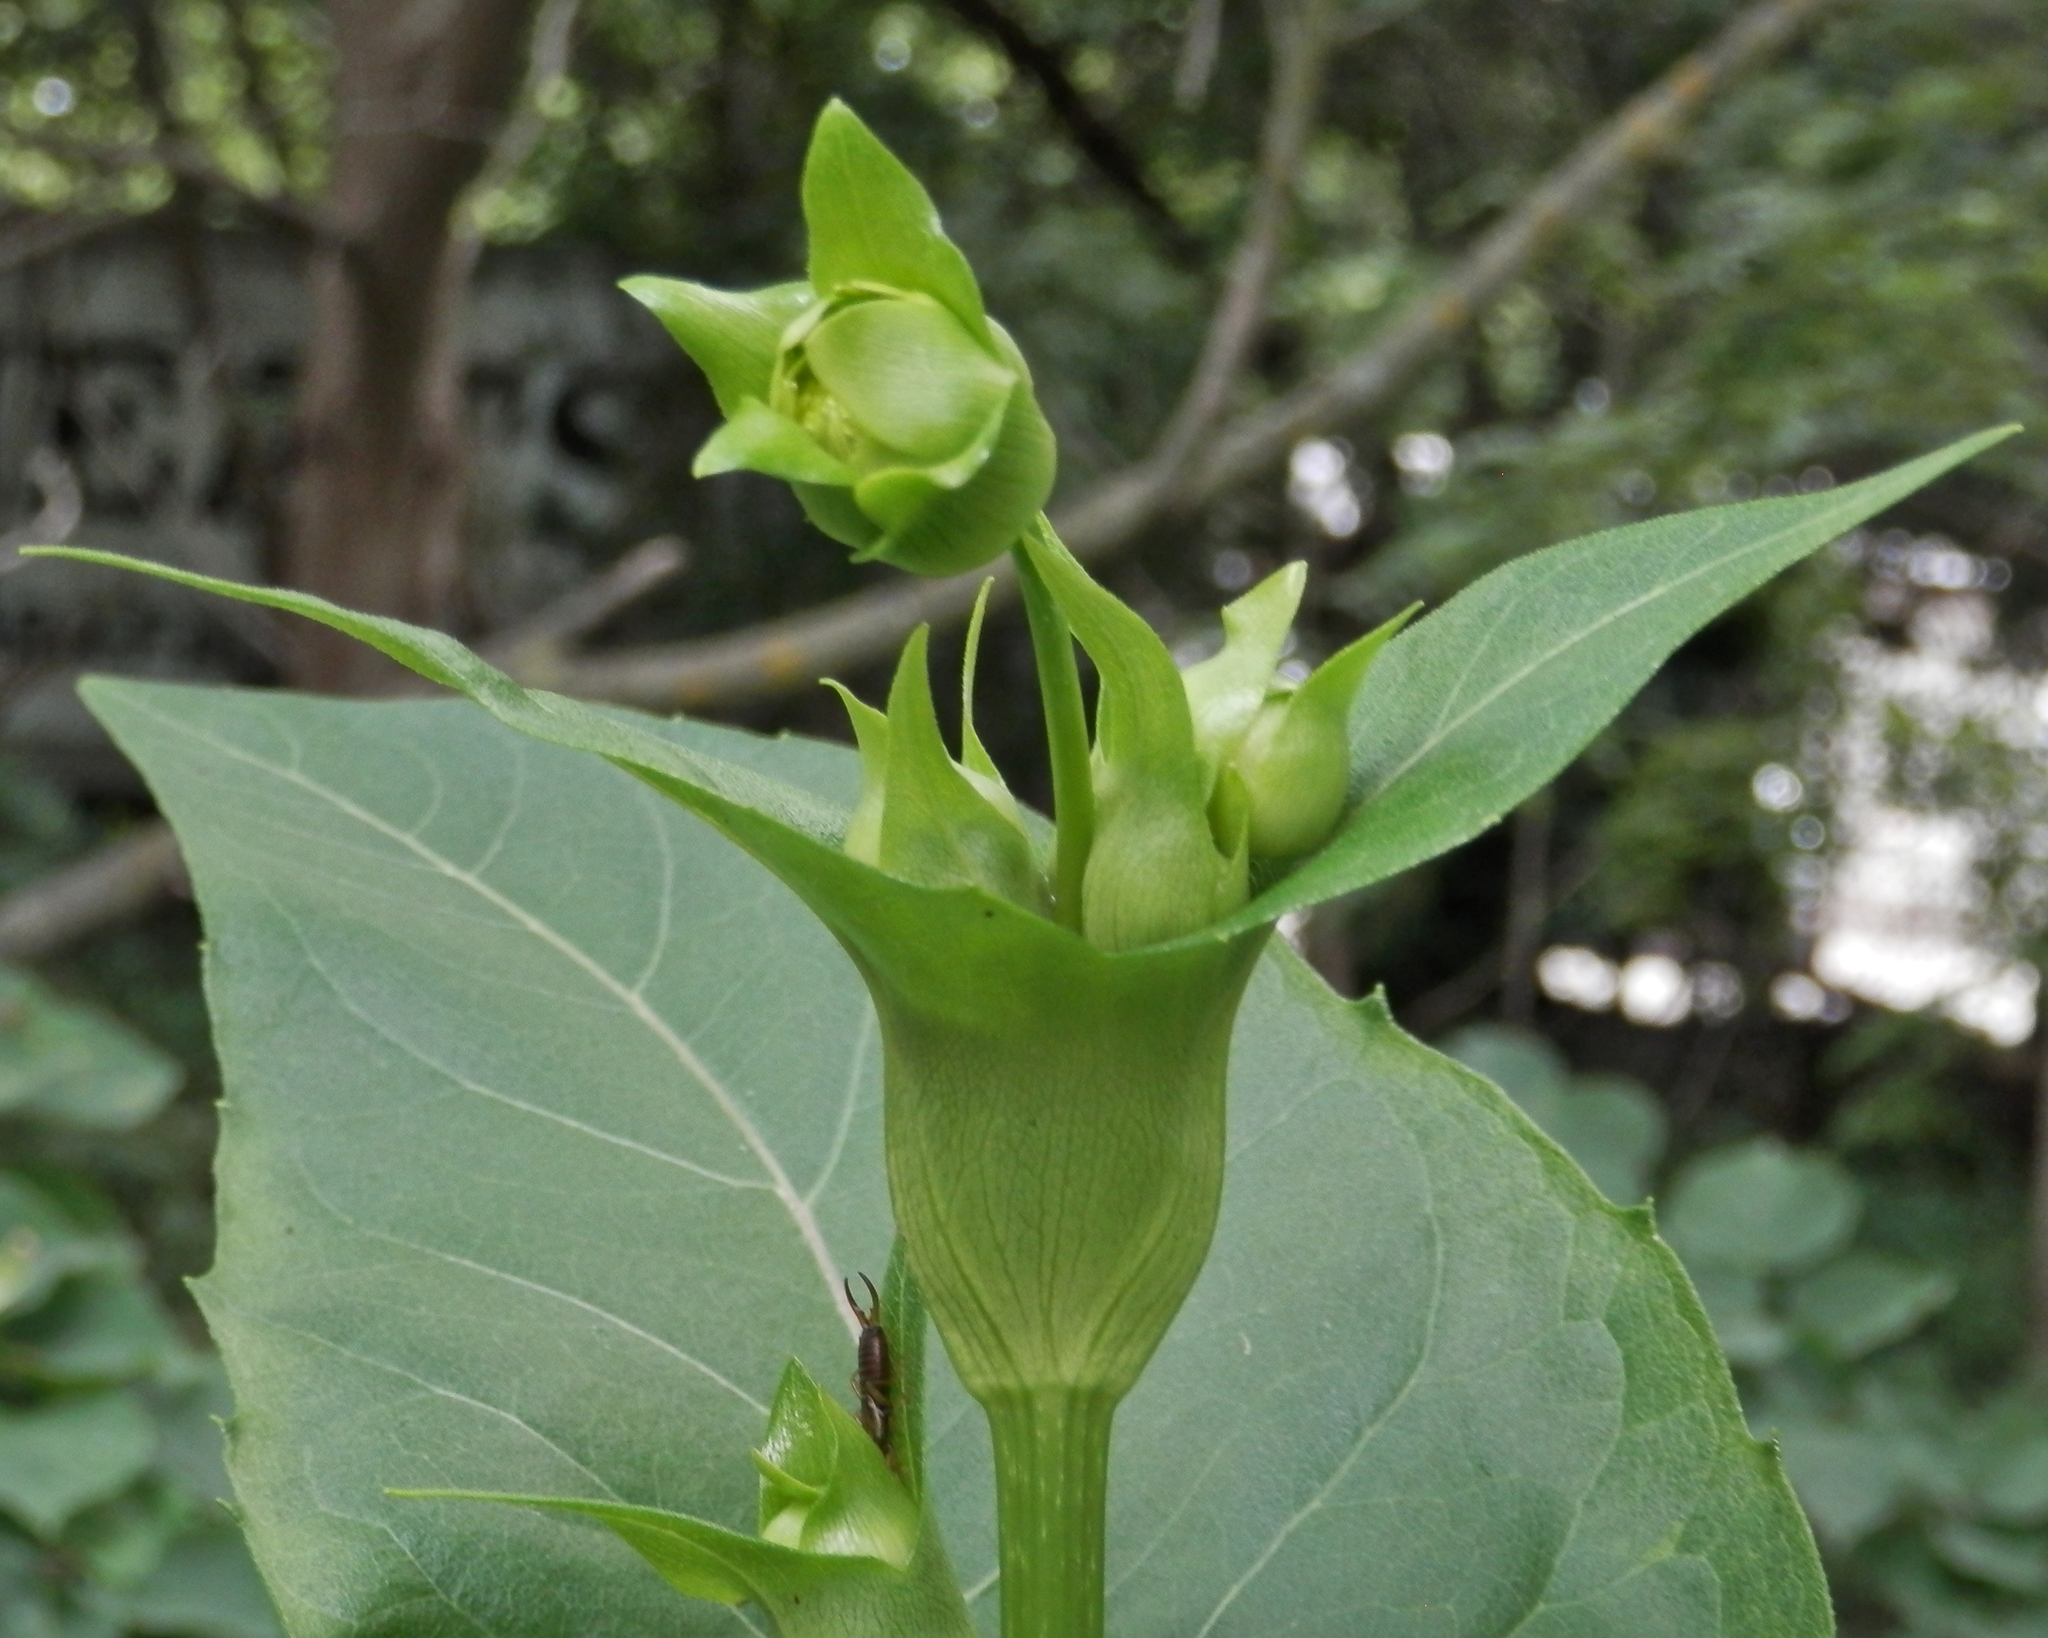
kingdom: Plantae
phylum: Tracheophyta
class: Magnoliopsida
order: Asterales
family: Asteraceae
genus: Silphium
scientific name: Silphium perfoliatum
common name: Cup-plant
